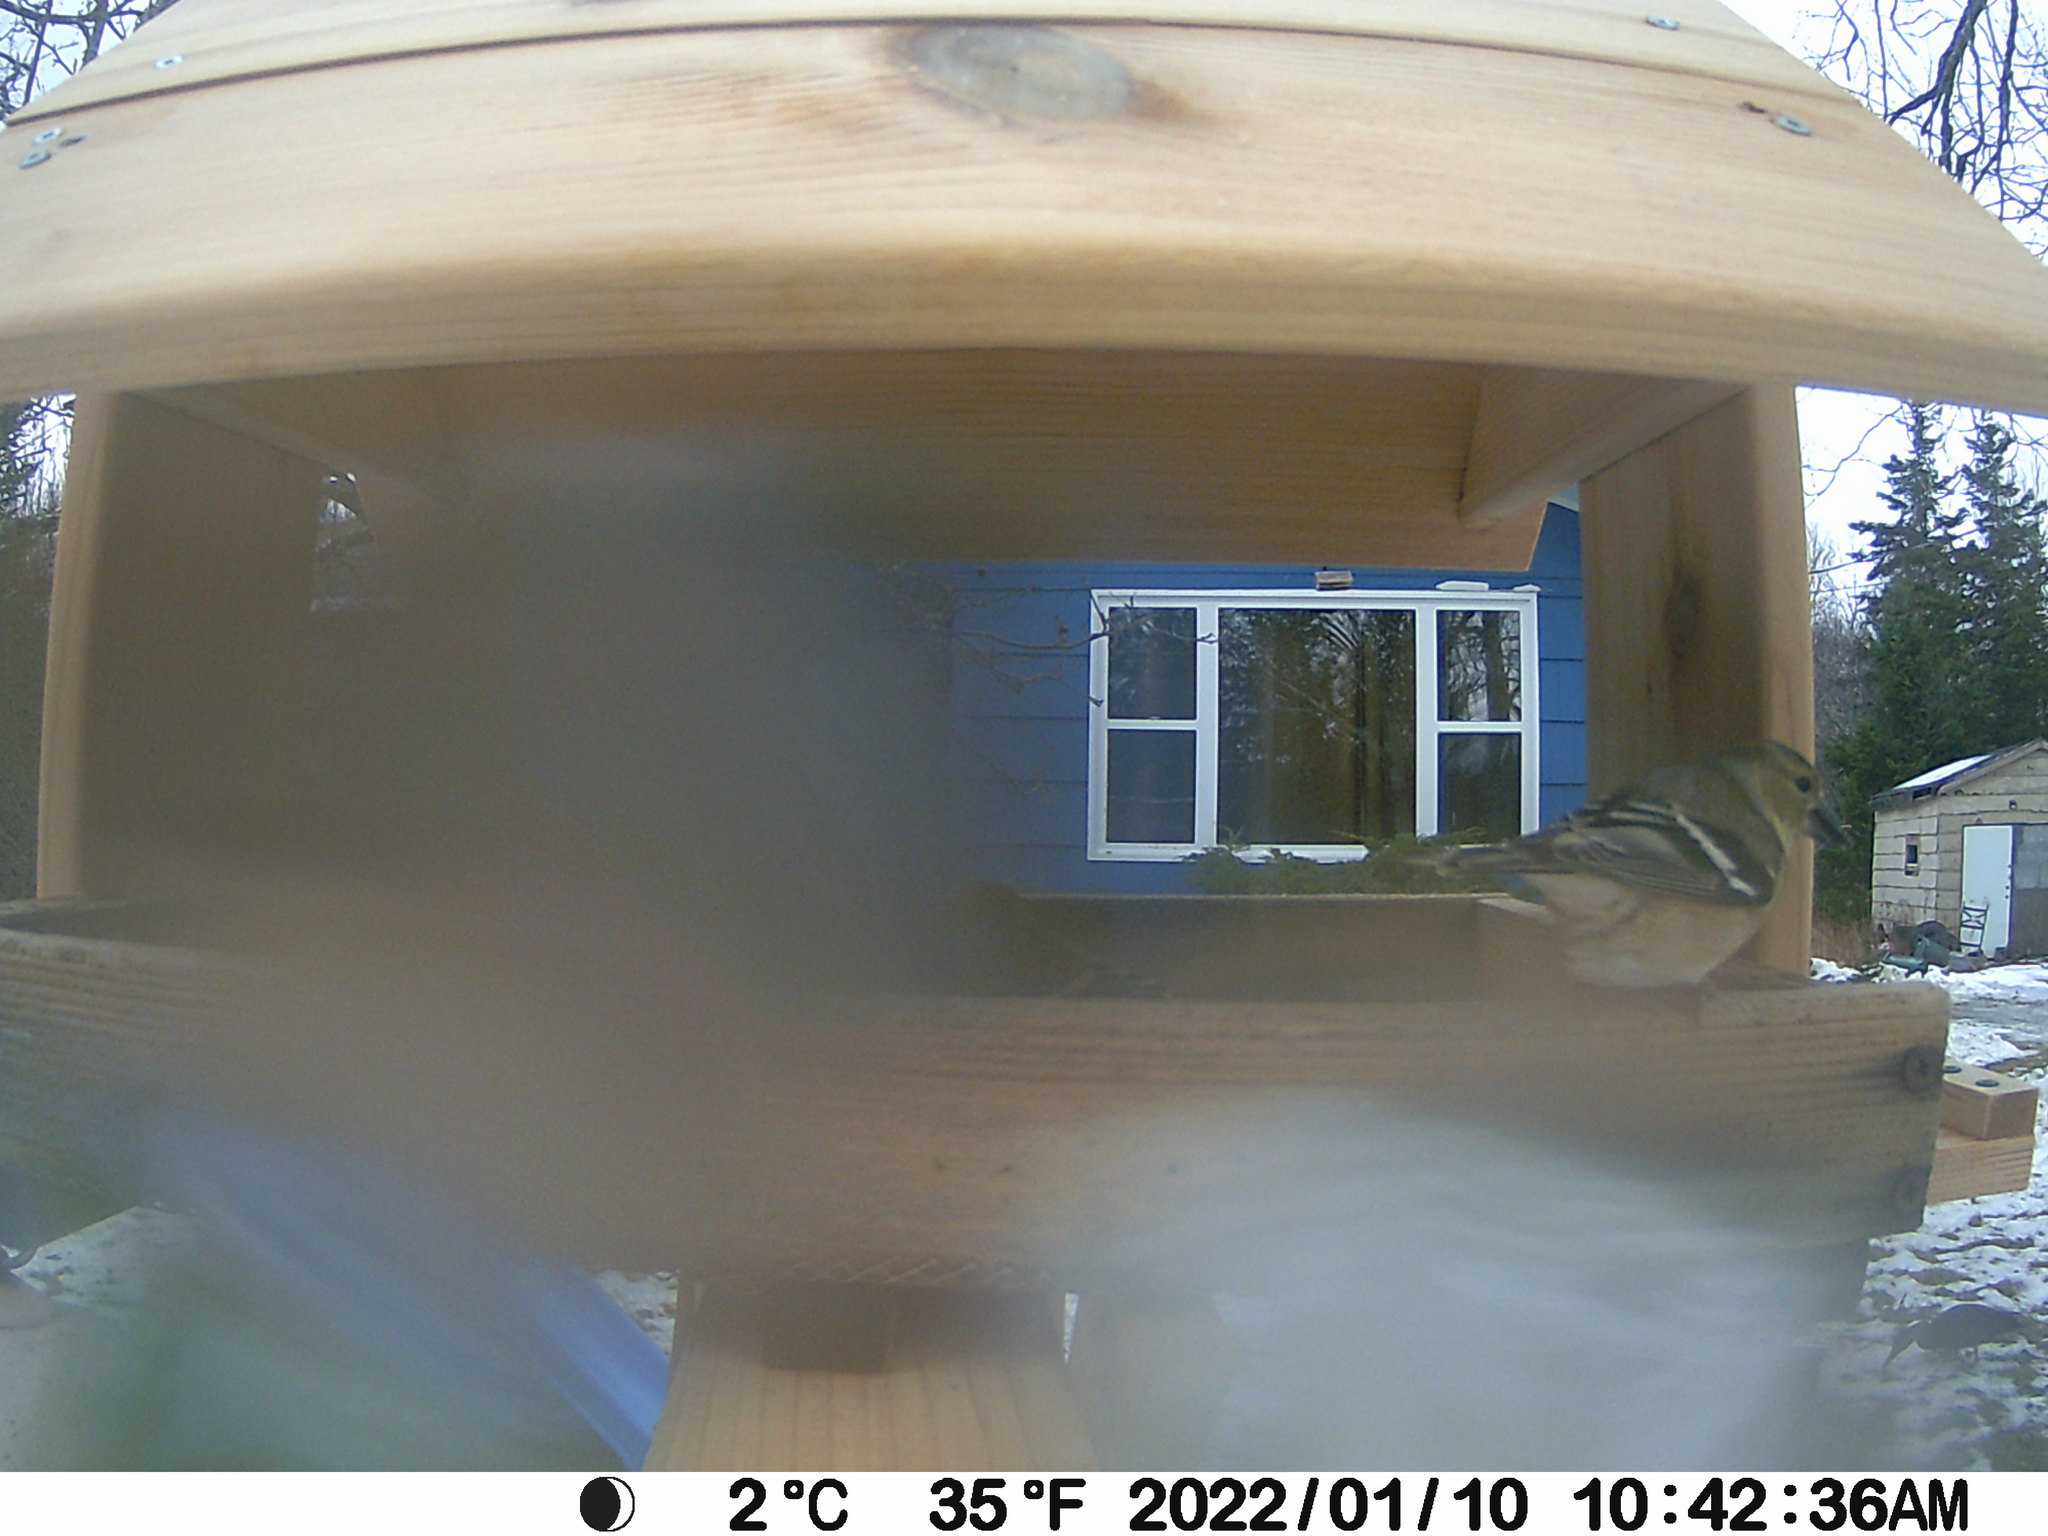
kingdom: Animalia
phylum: Chordata
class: Aves
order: Anseriformes
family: Anatidae
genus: Anas
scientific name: Anas rubripes
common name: American black duck
